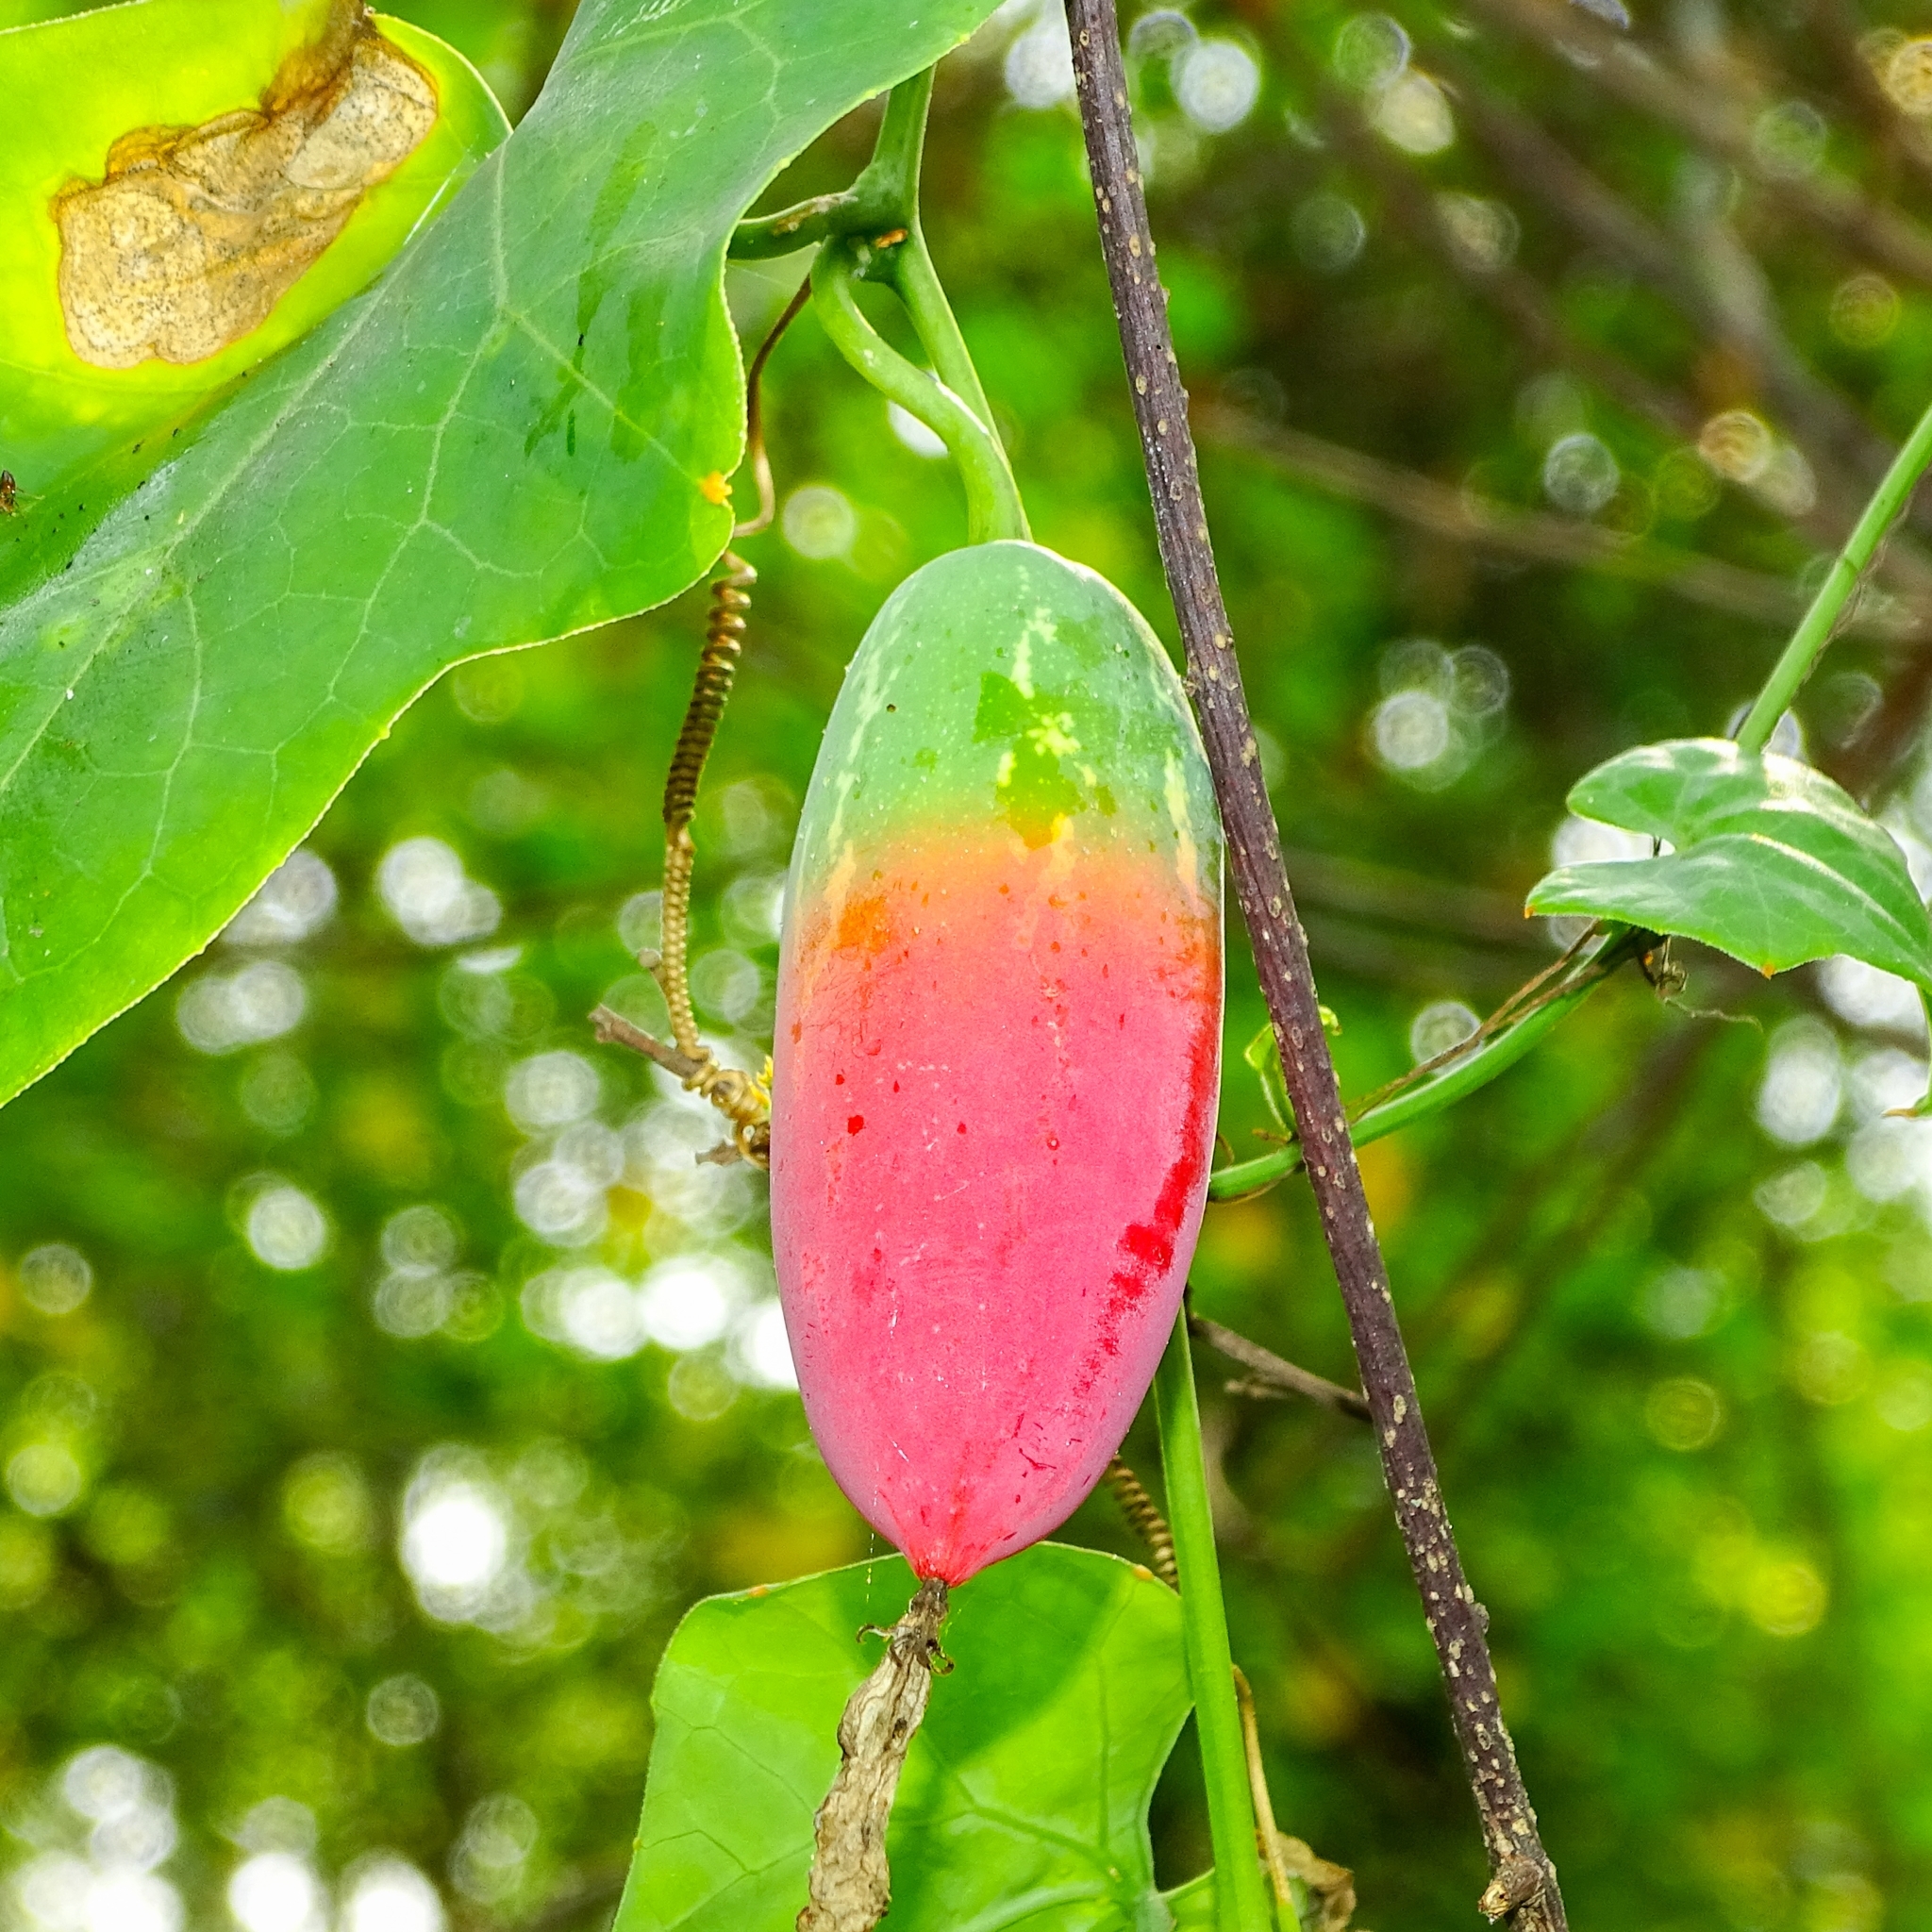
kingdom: Plantae
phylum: Tracheophyta
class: Magnoliopsida
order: Cucurbitales
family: Cucurbitaceae
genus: Coccinia
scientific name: Coccinia grandis
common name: Ivy gourd
